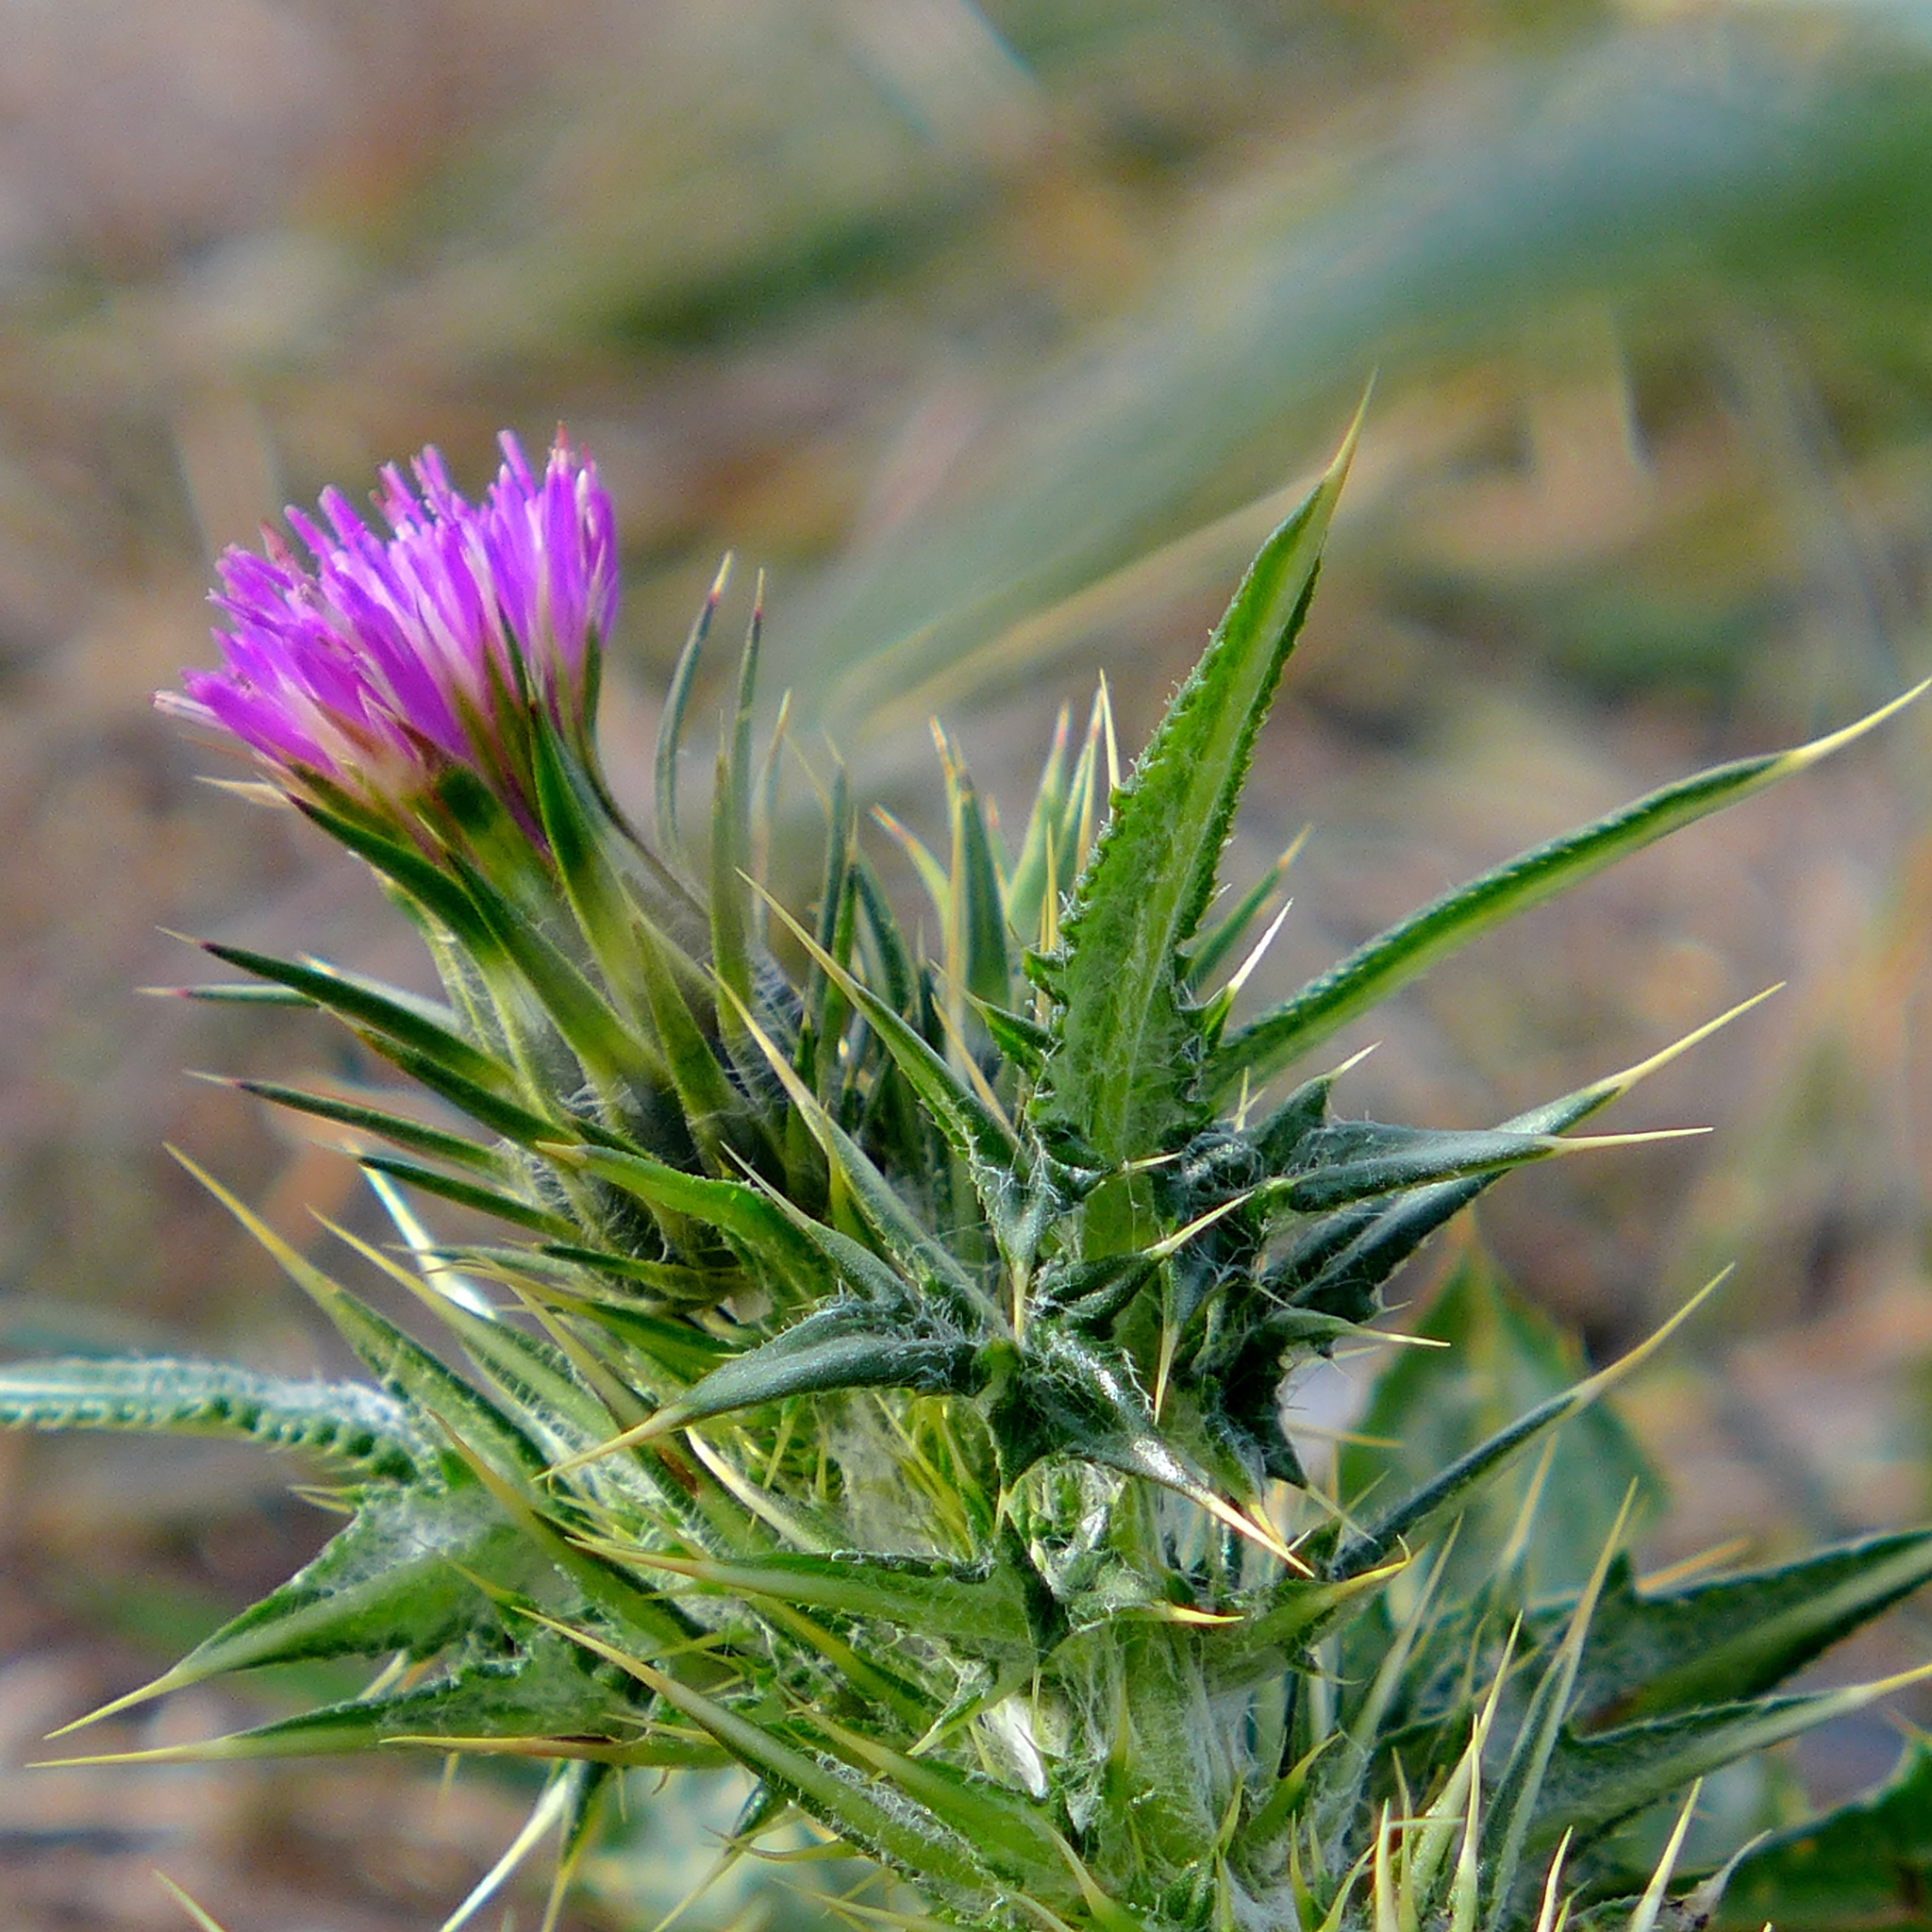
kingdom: Plantae
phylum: Tracheophyta
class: Magnoliopsida
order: Asterales
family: Asteraceae
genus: Carduus
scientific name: Carduus pycnocephalus
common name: Plymouth thistle
